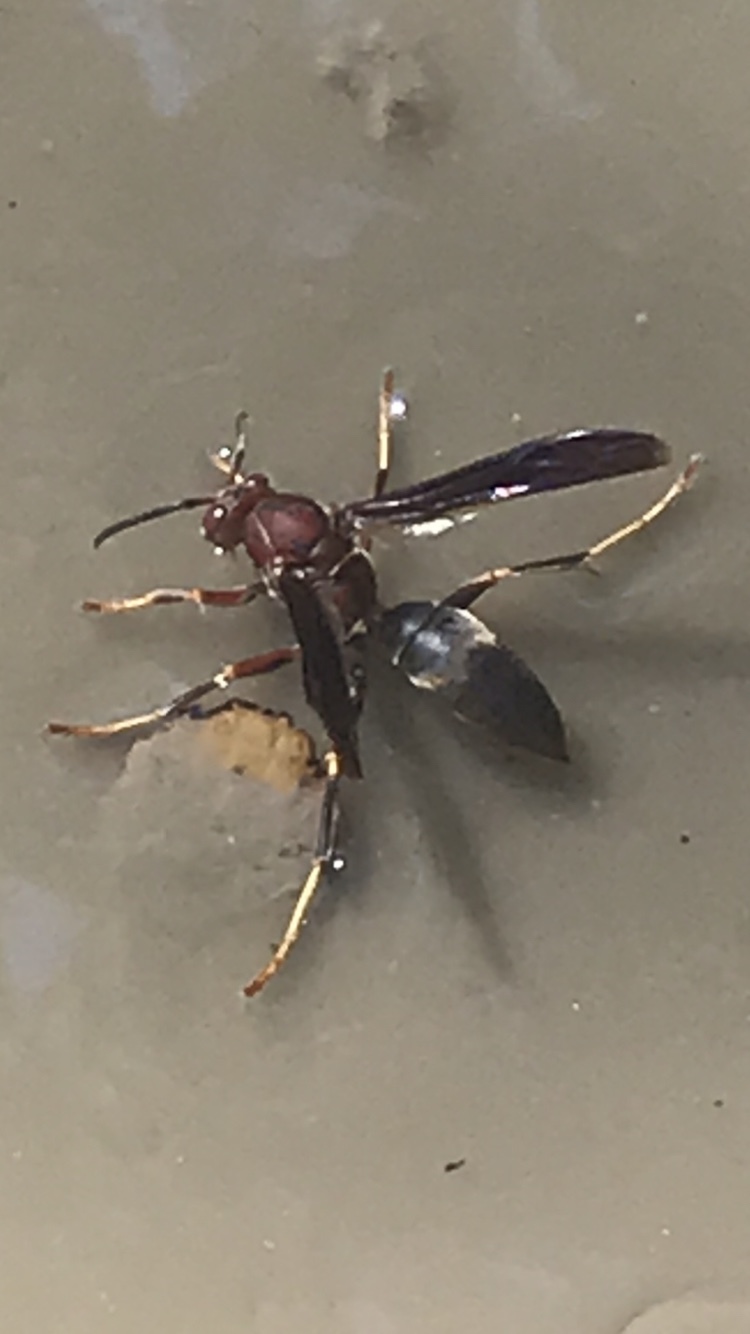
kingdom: Animalia
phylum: Arthropoda
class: Insecta
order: Hymenoptera
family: Eumenidae
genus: Polistes
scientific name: Polistes metricus
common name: Metric paper wasp
